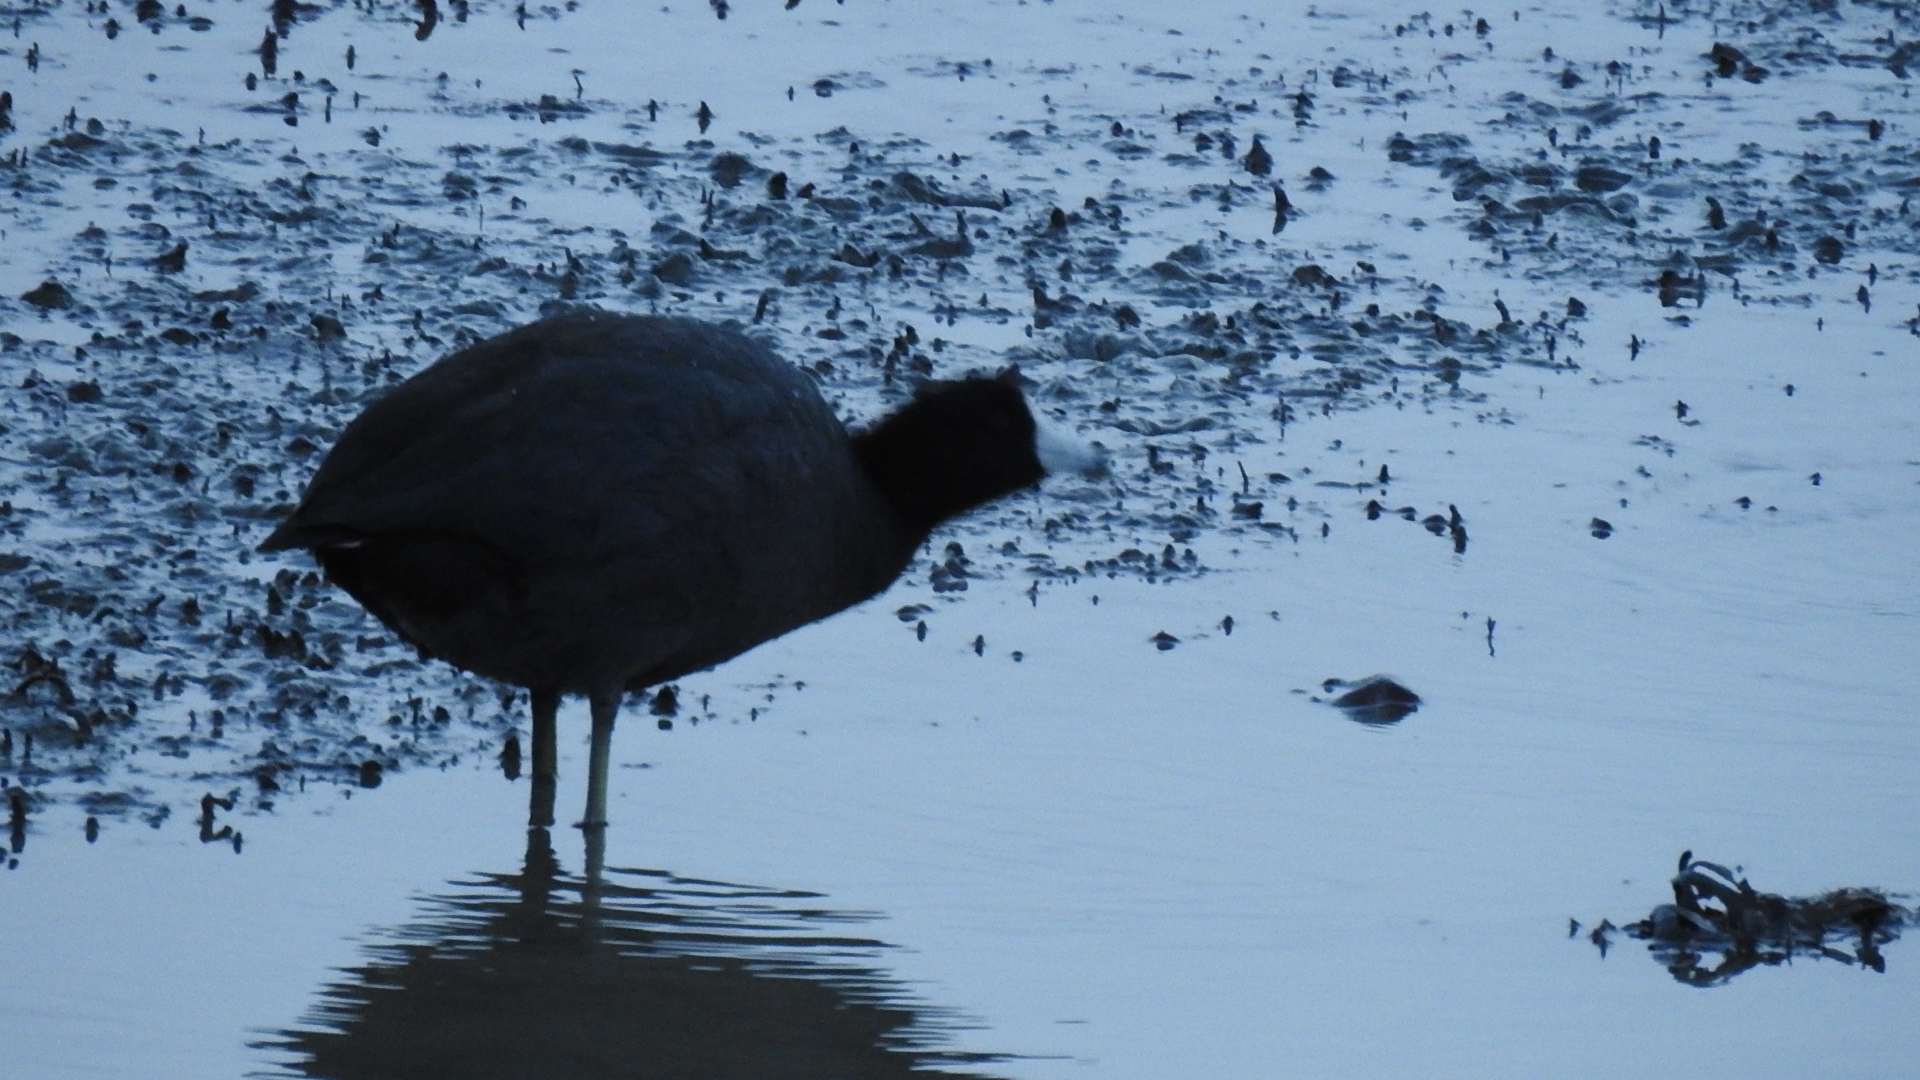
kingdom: Animalia
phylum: Chordata
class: Aves
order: Gruiformes
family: Rallidae
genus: Fulica
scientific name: Fulica americana
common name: American coot
